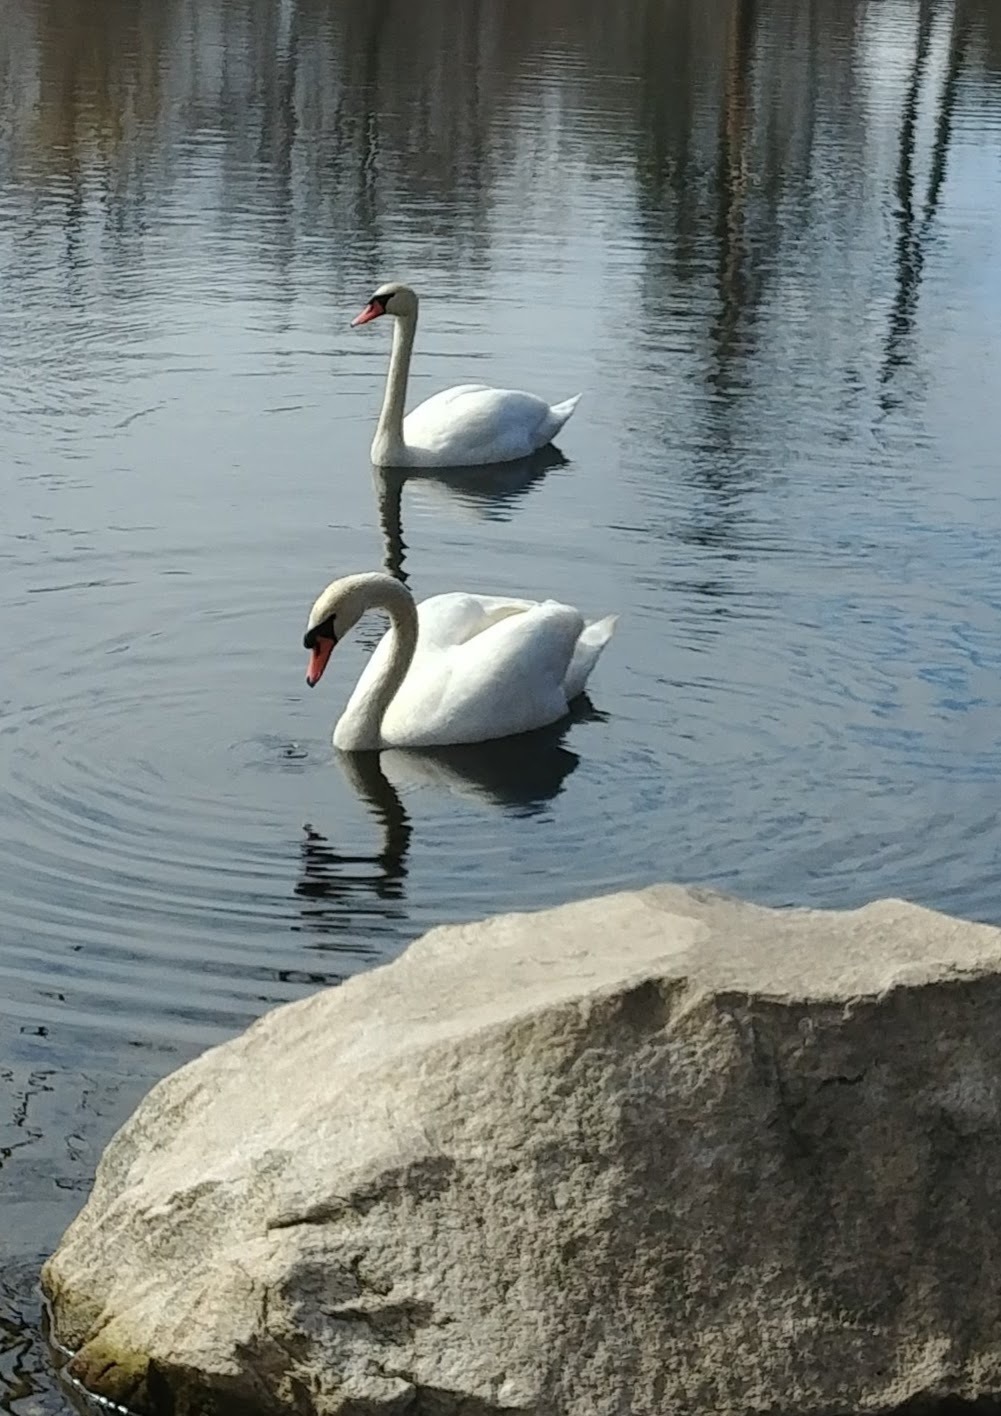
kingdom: Animalia
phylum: Chordata
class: Aves
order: Anseriformes
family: Anatidae
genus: Cygnus
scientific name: Cygnus olor
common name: Mute swan
